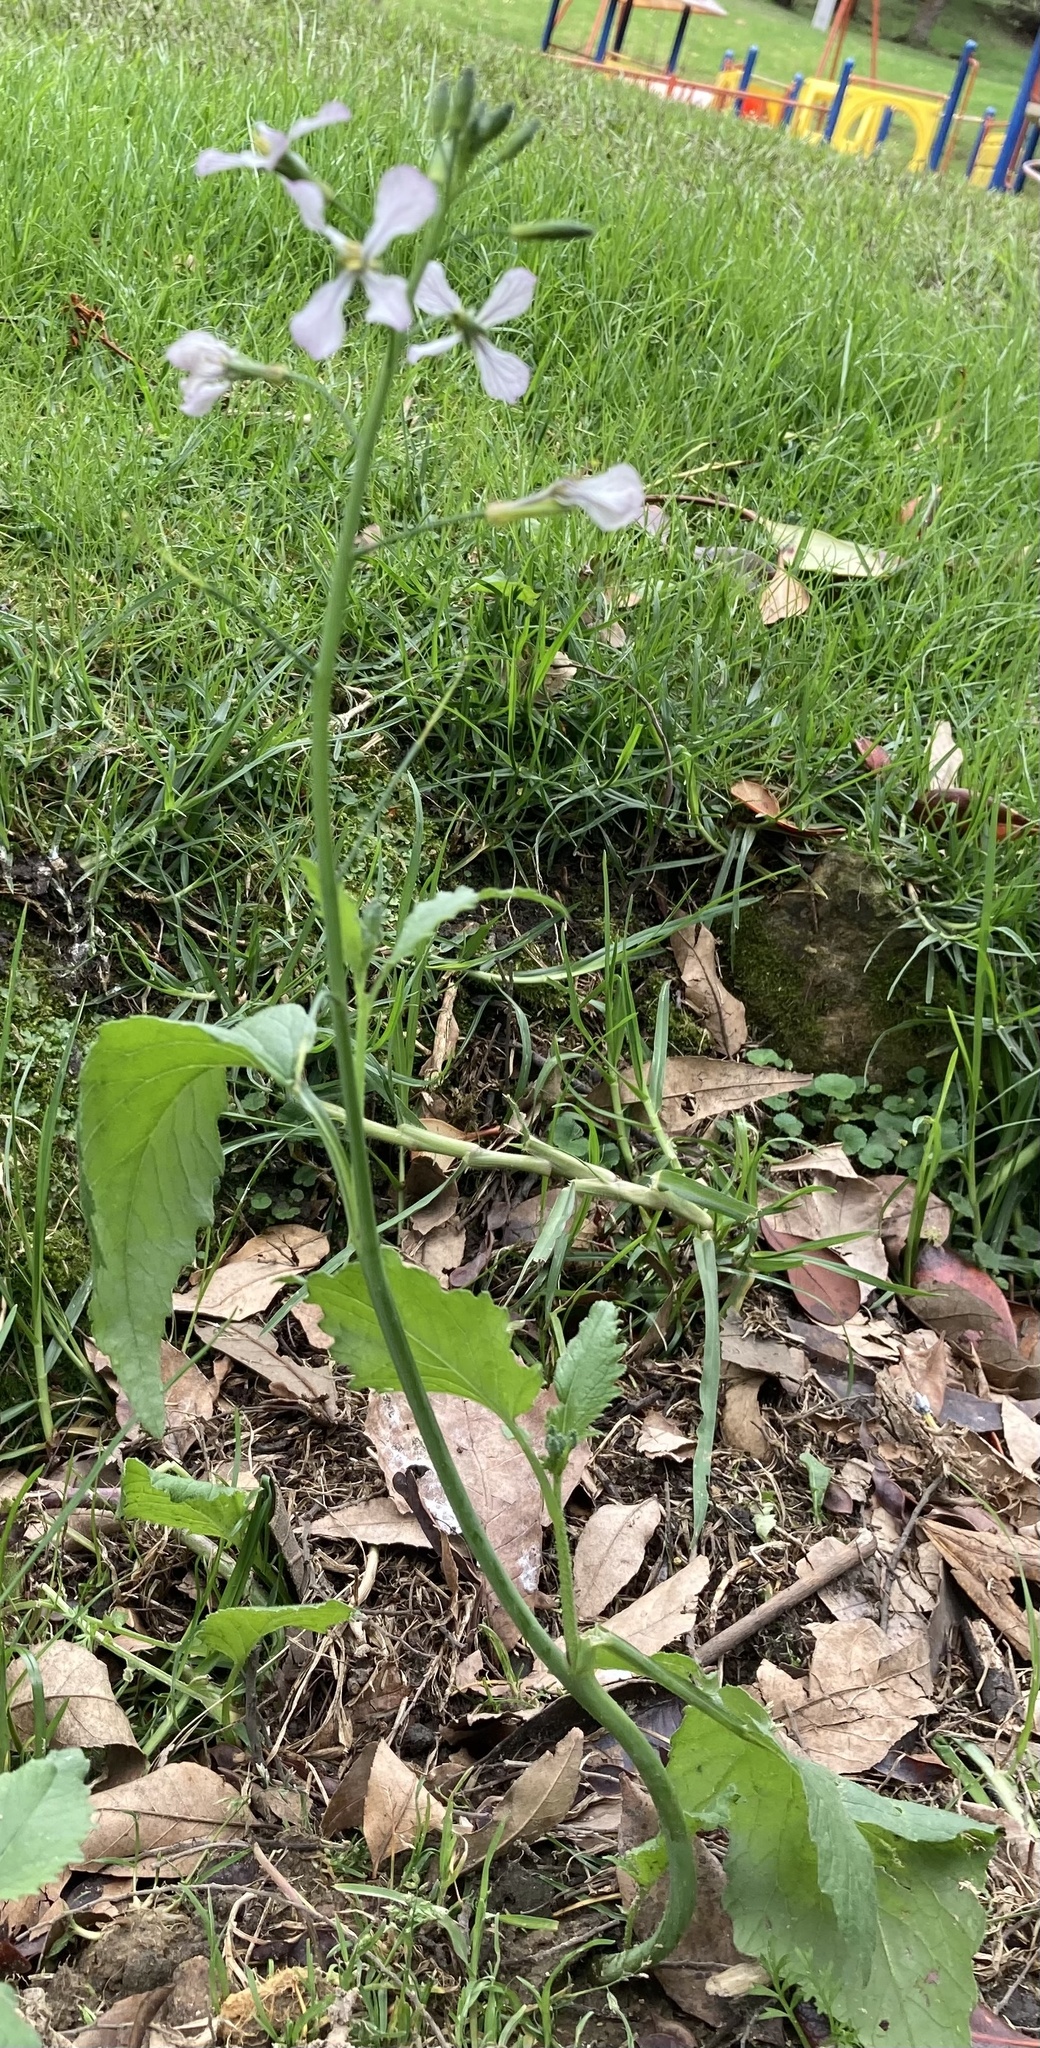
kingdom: Plantae
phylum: Tracheophyta
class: Magnoliopsida
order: Brassicales
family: Brassicaceae
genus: Raphanus
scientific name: Raphanus sativus
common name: Cultivated radish
